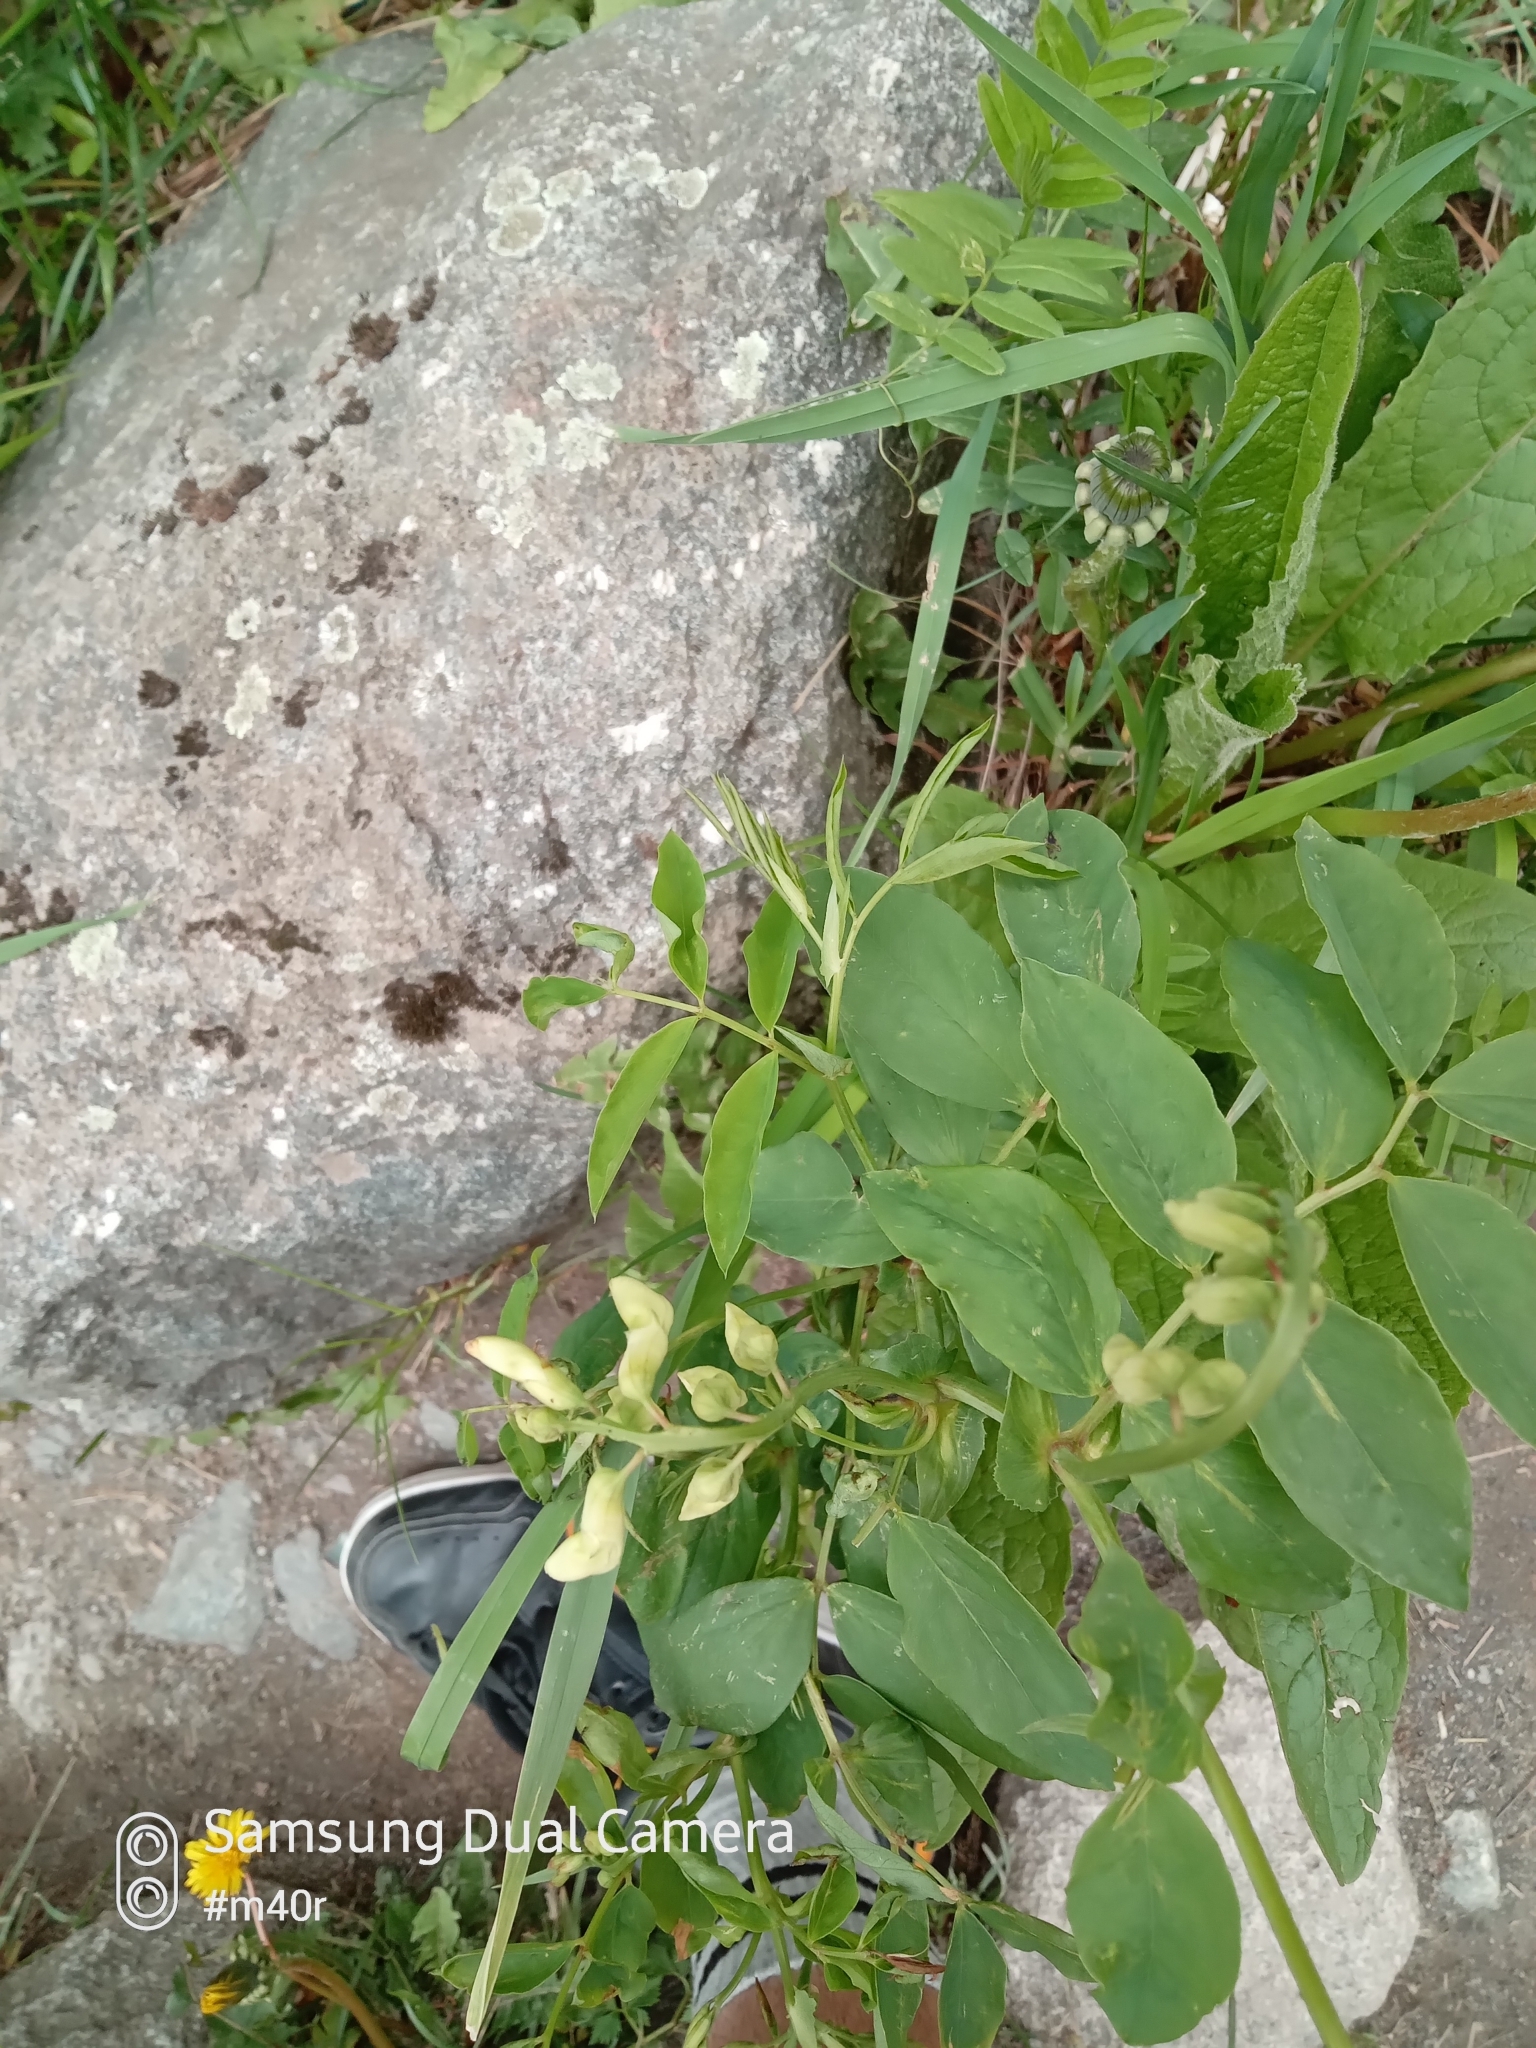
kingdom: Plantae
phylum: Tracheophyta
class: Magnoliopsida
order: Fabales
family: Fabaceae
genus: Lathyrus
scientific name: Lathyrus gmelinii
